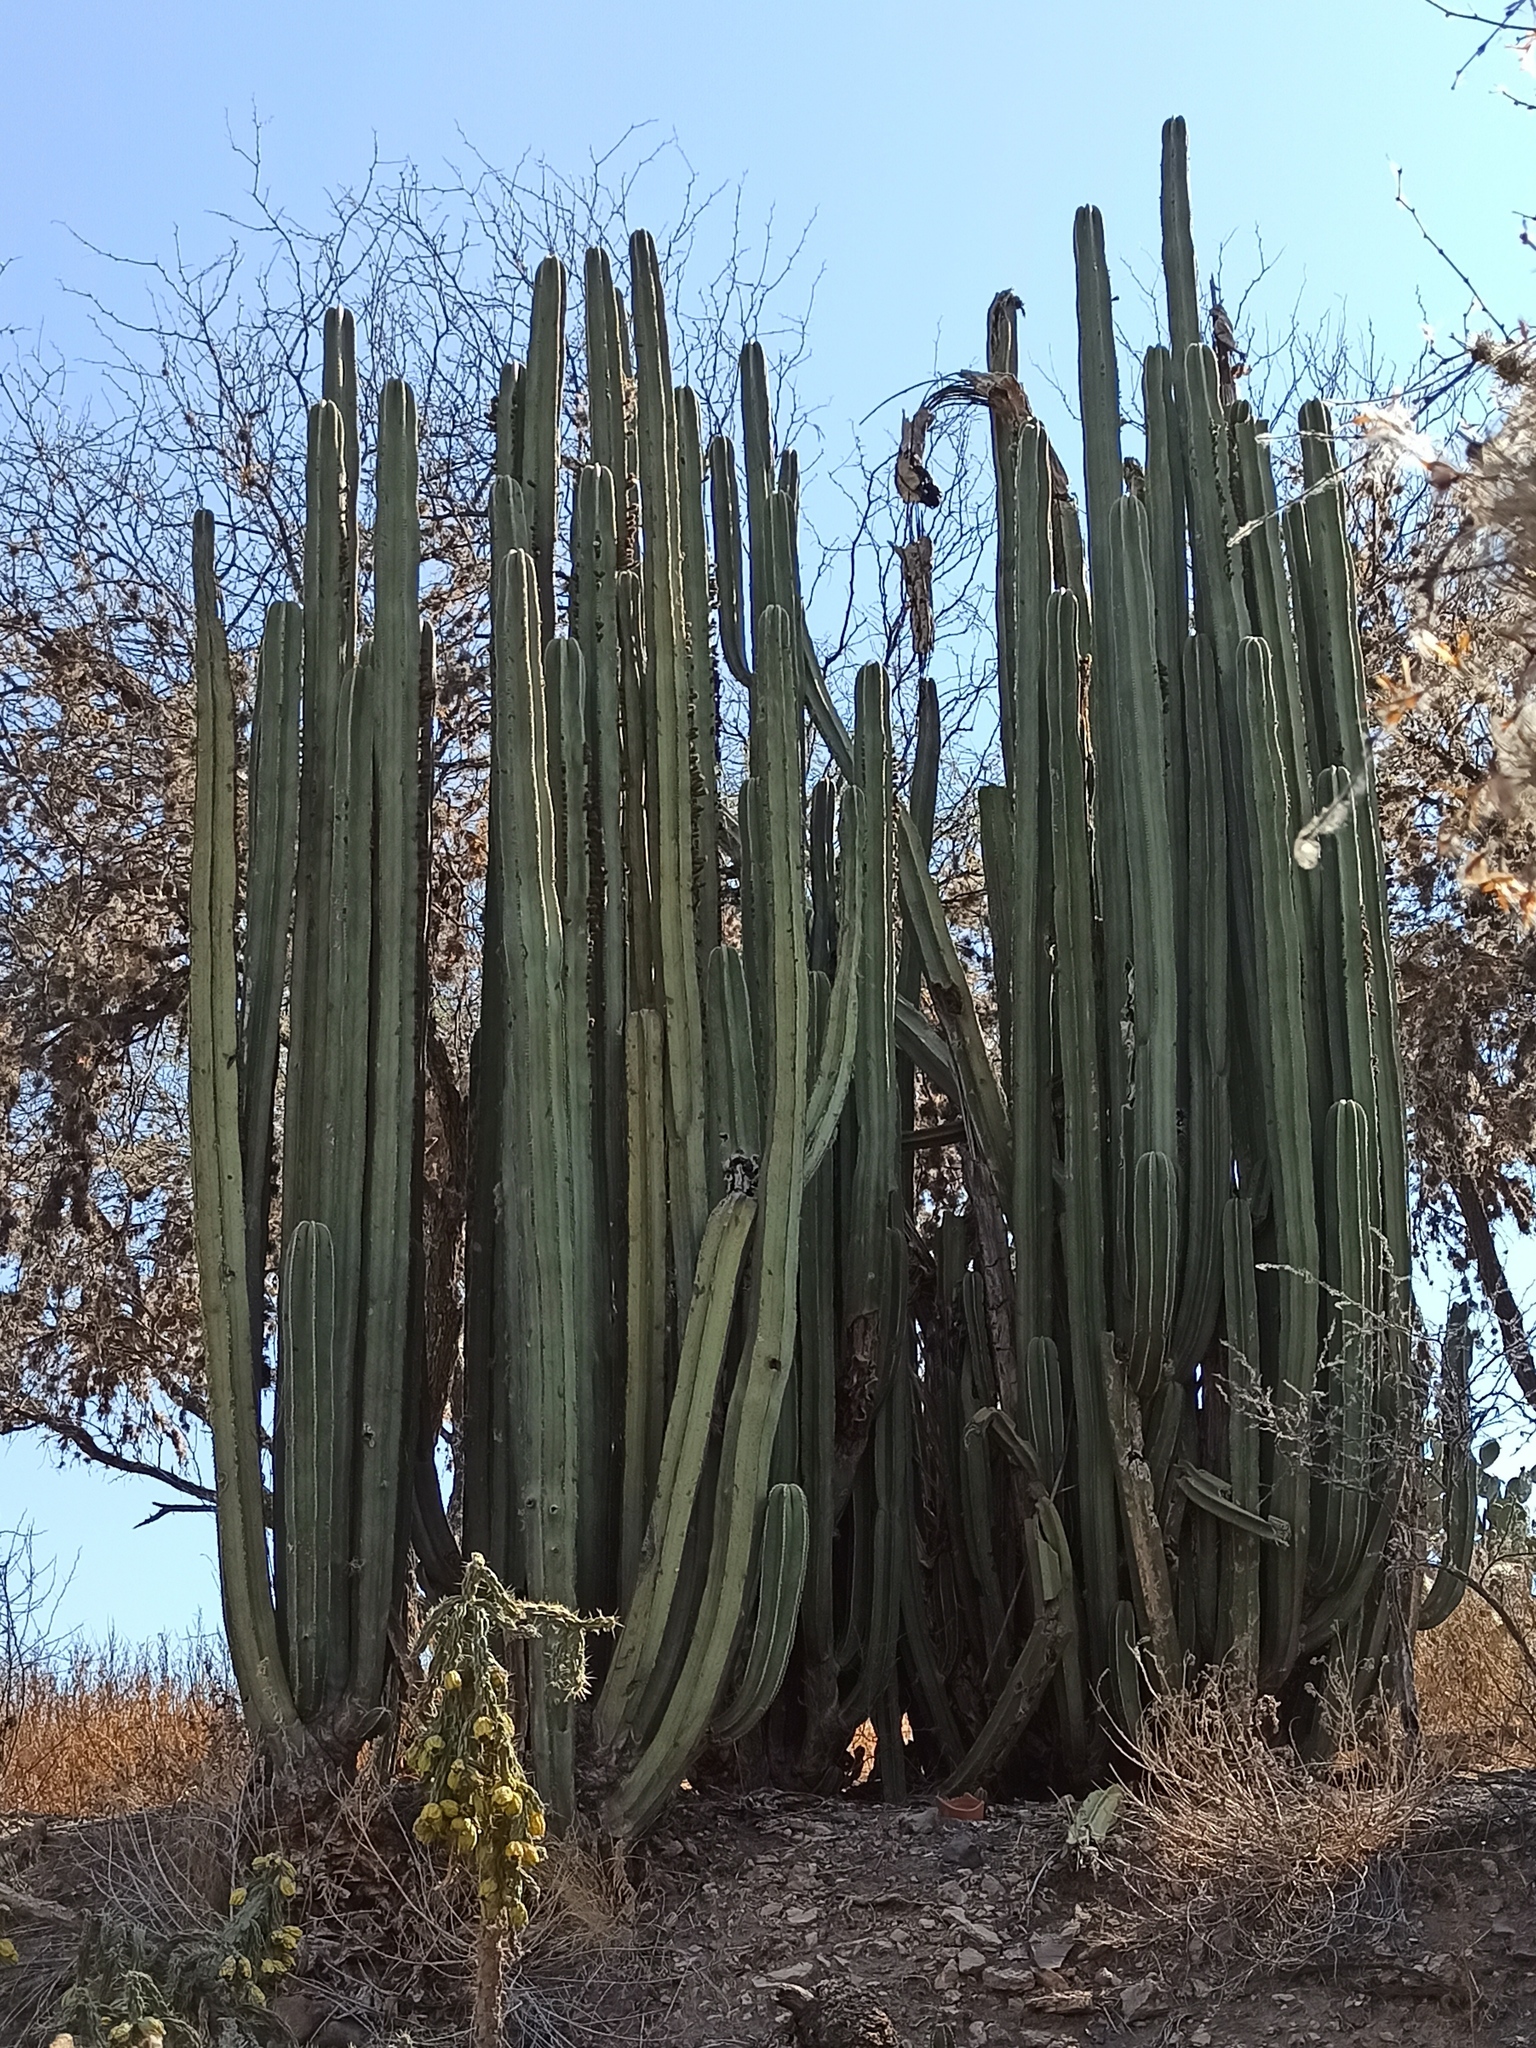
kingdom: Plantae
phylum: Tracheophyta
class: Magnoliopsida
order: Caryophyllales
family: Cactaceae
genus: Marginatocereus
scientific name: Marginatocereus marginatus
